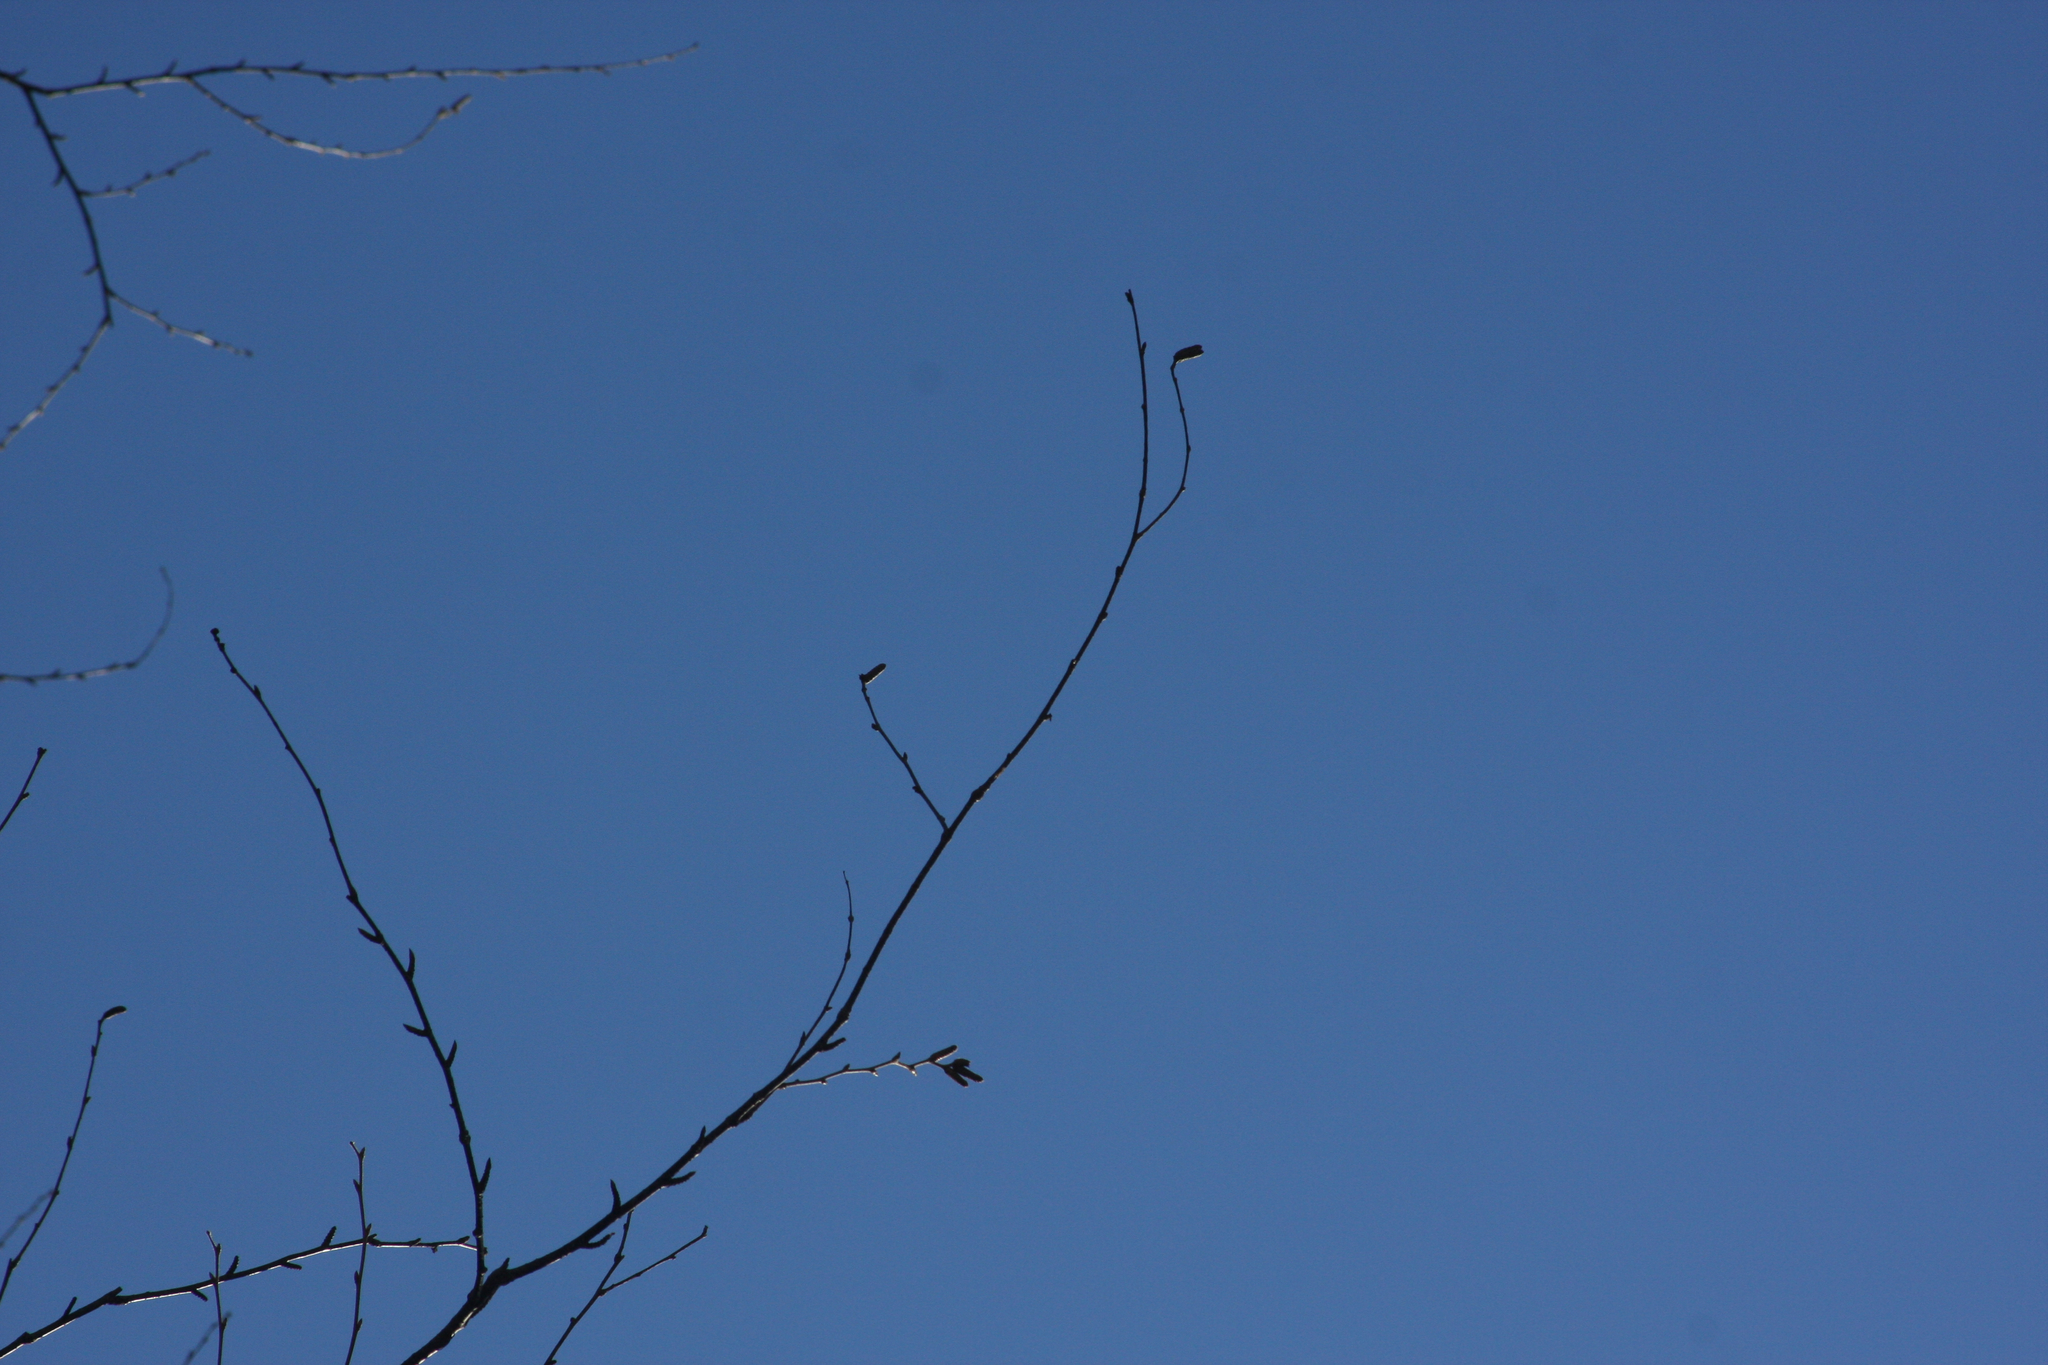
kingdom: Plantae
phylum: Tracheophyta
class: Magnoliopsida
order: Fagales
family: Betulaceae
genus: Betula
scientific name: Betula alleghaniensis
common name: Yellow birch
